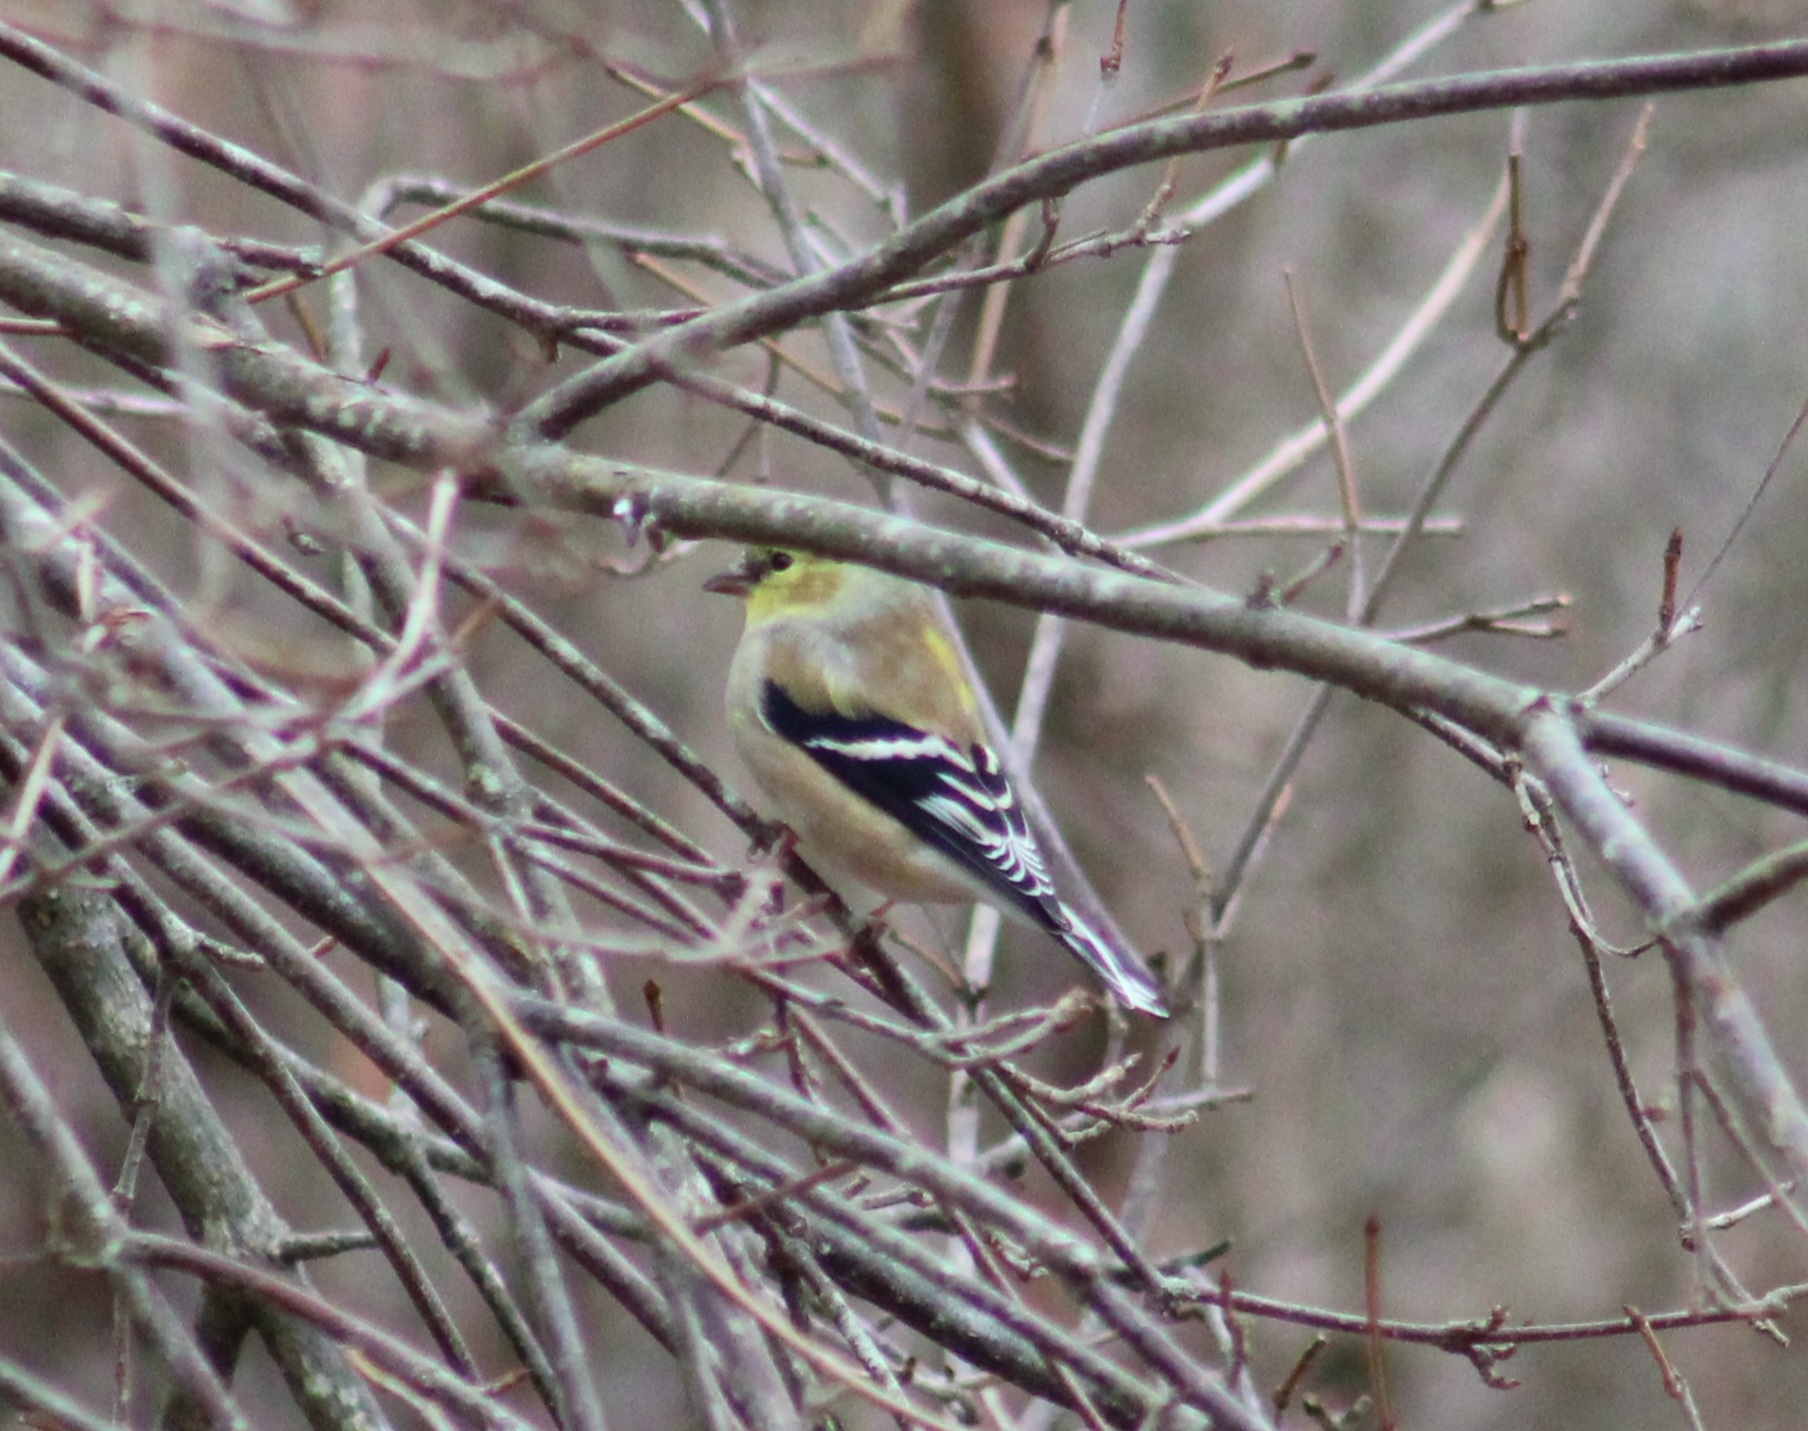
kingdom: Animalia
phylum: Chordata
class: Aves
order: Passeriformes
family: Fringillidae
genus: Spinus
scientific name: Spinus tristis
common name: American goldfinch
